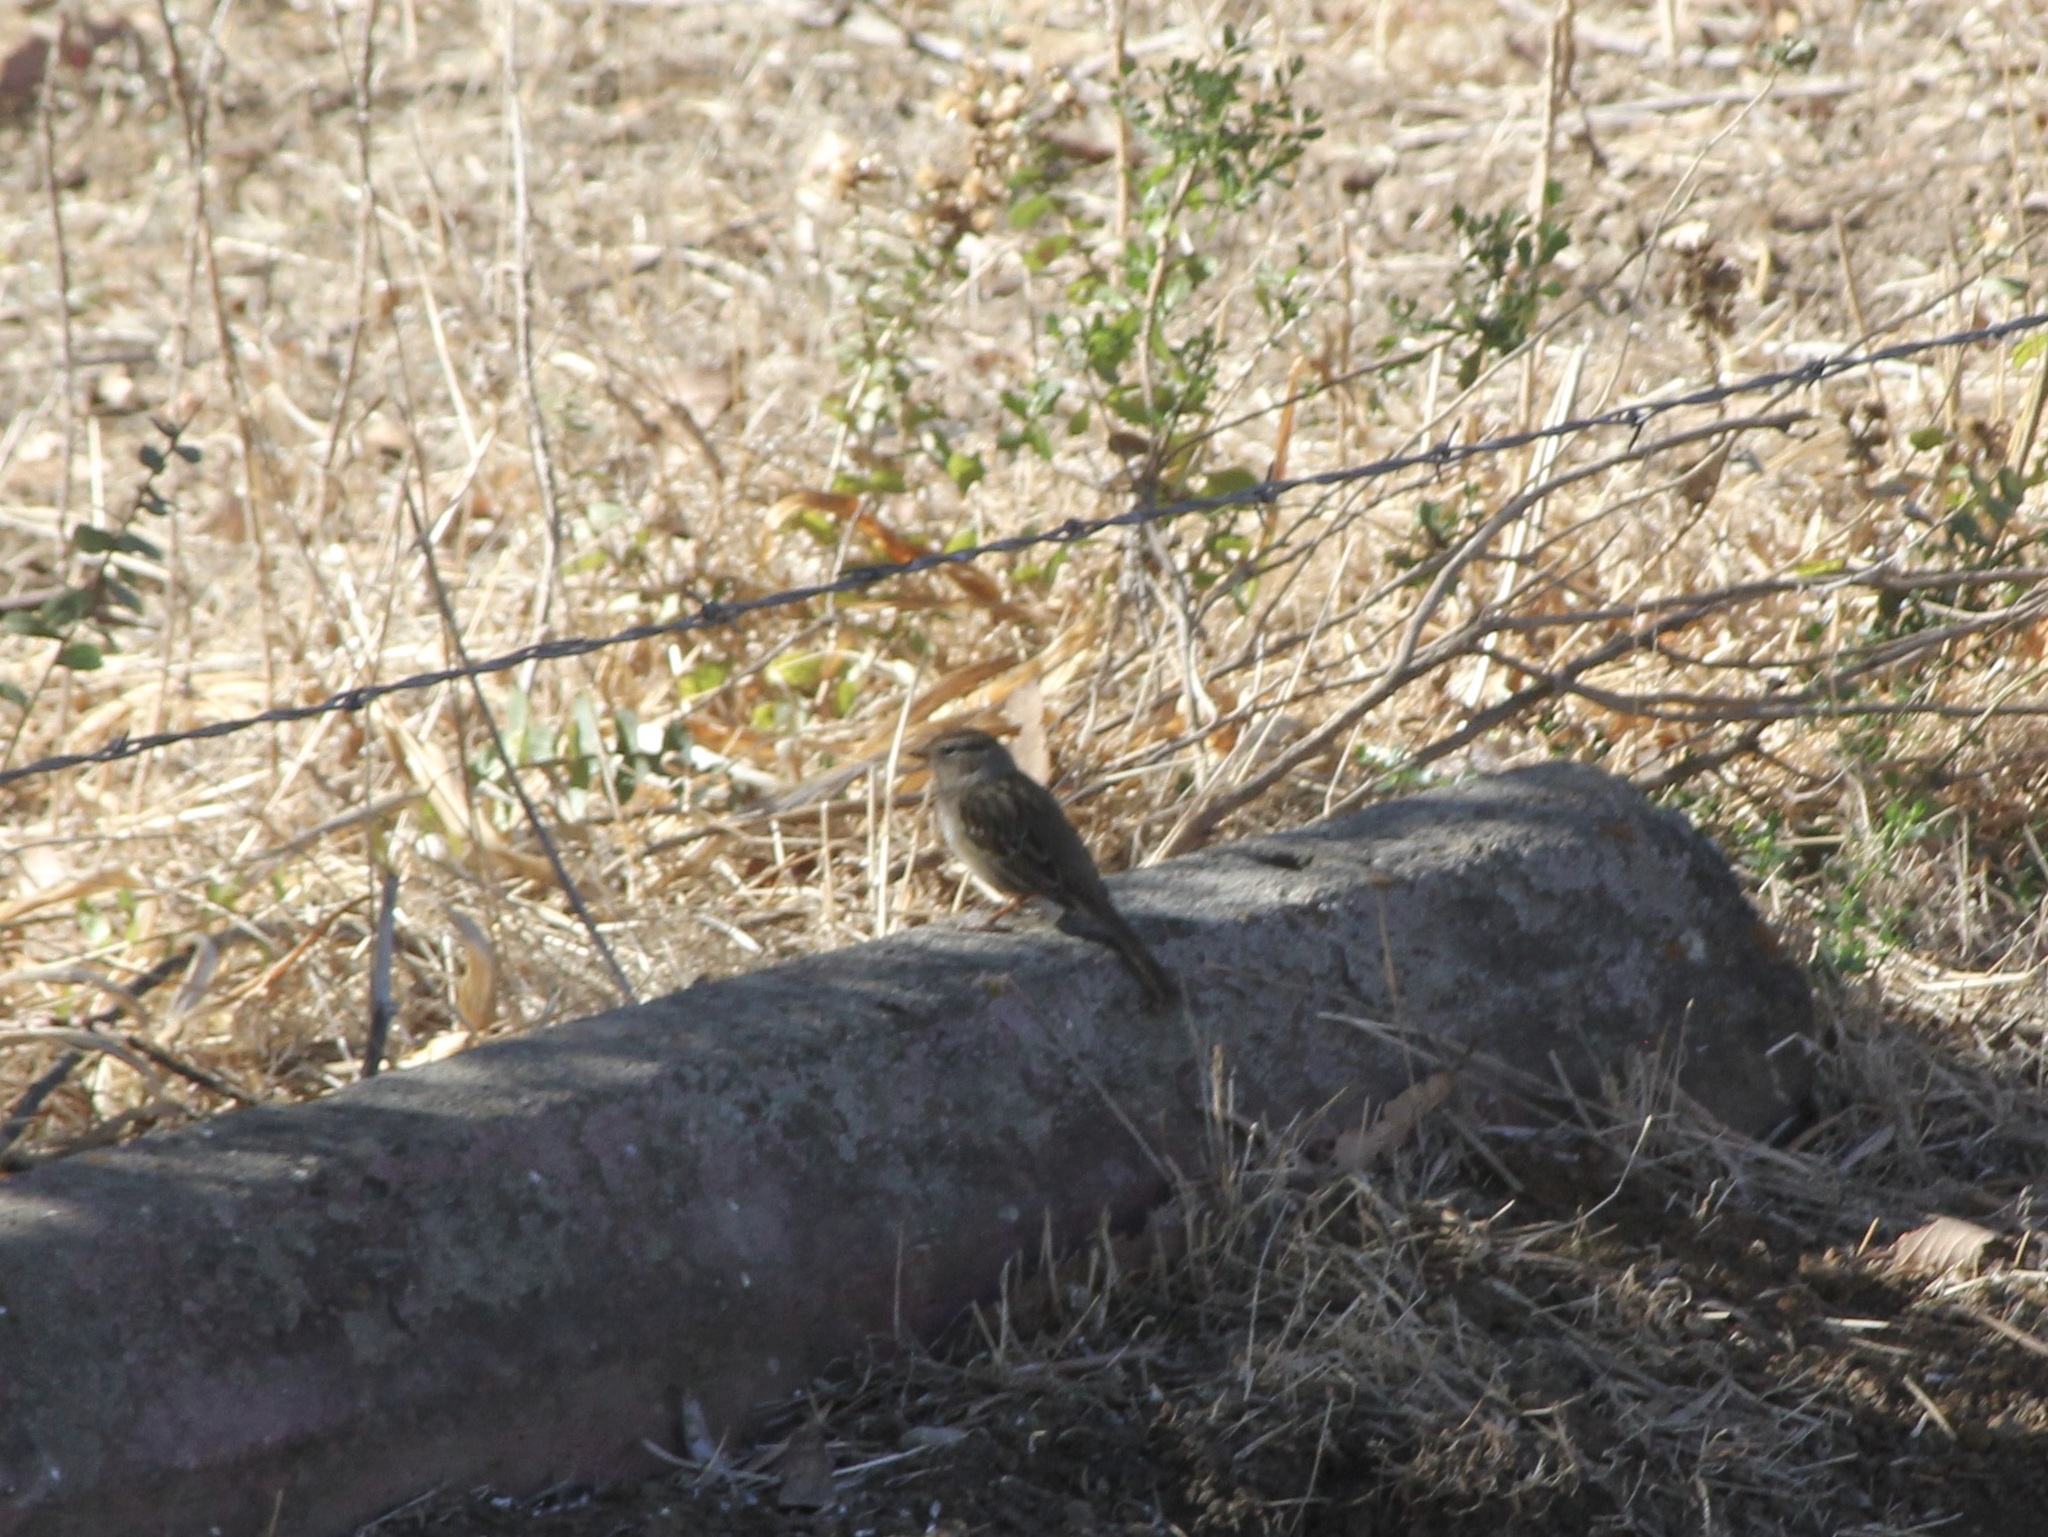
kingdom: Animalia
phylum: Chordata
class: Aves
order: Passeriformes
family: Passerellidae
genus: Zonotrichia
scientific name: Zonotrichia leucophrys
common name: White-crowned sparrow
